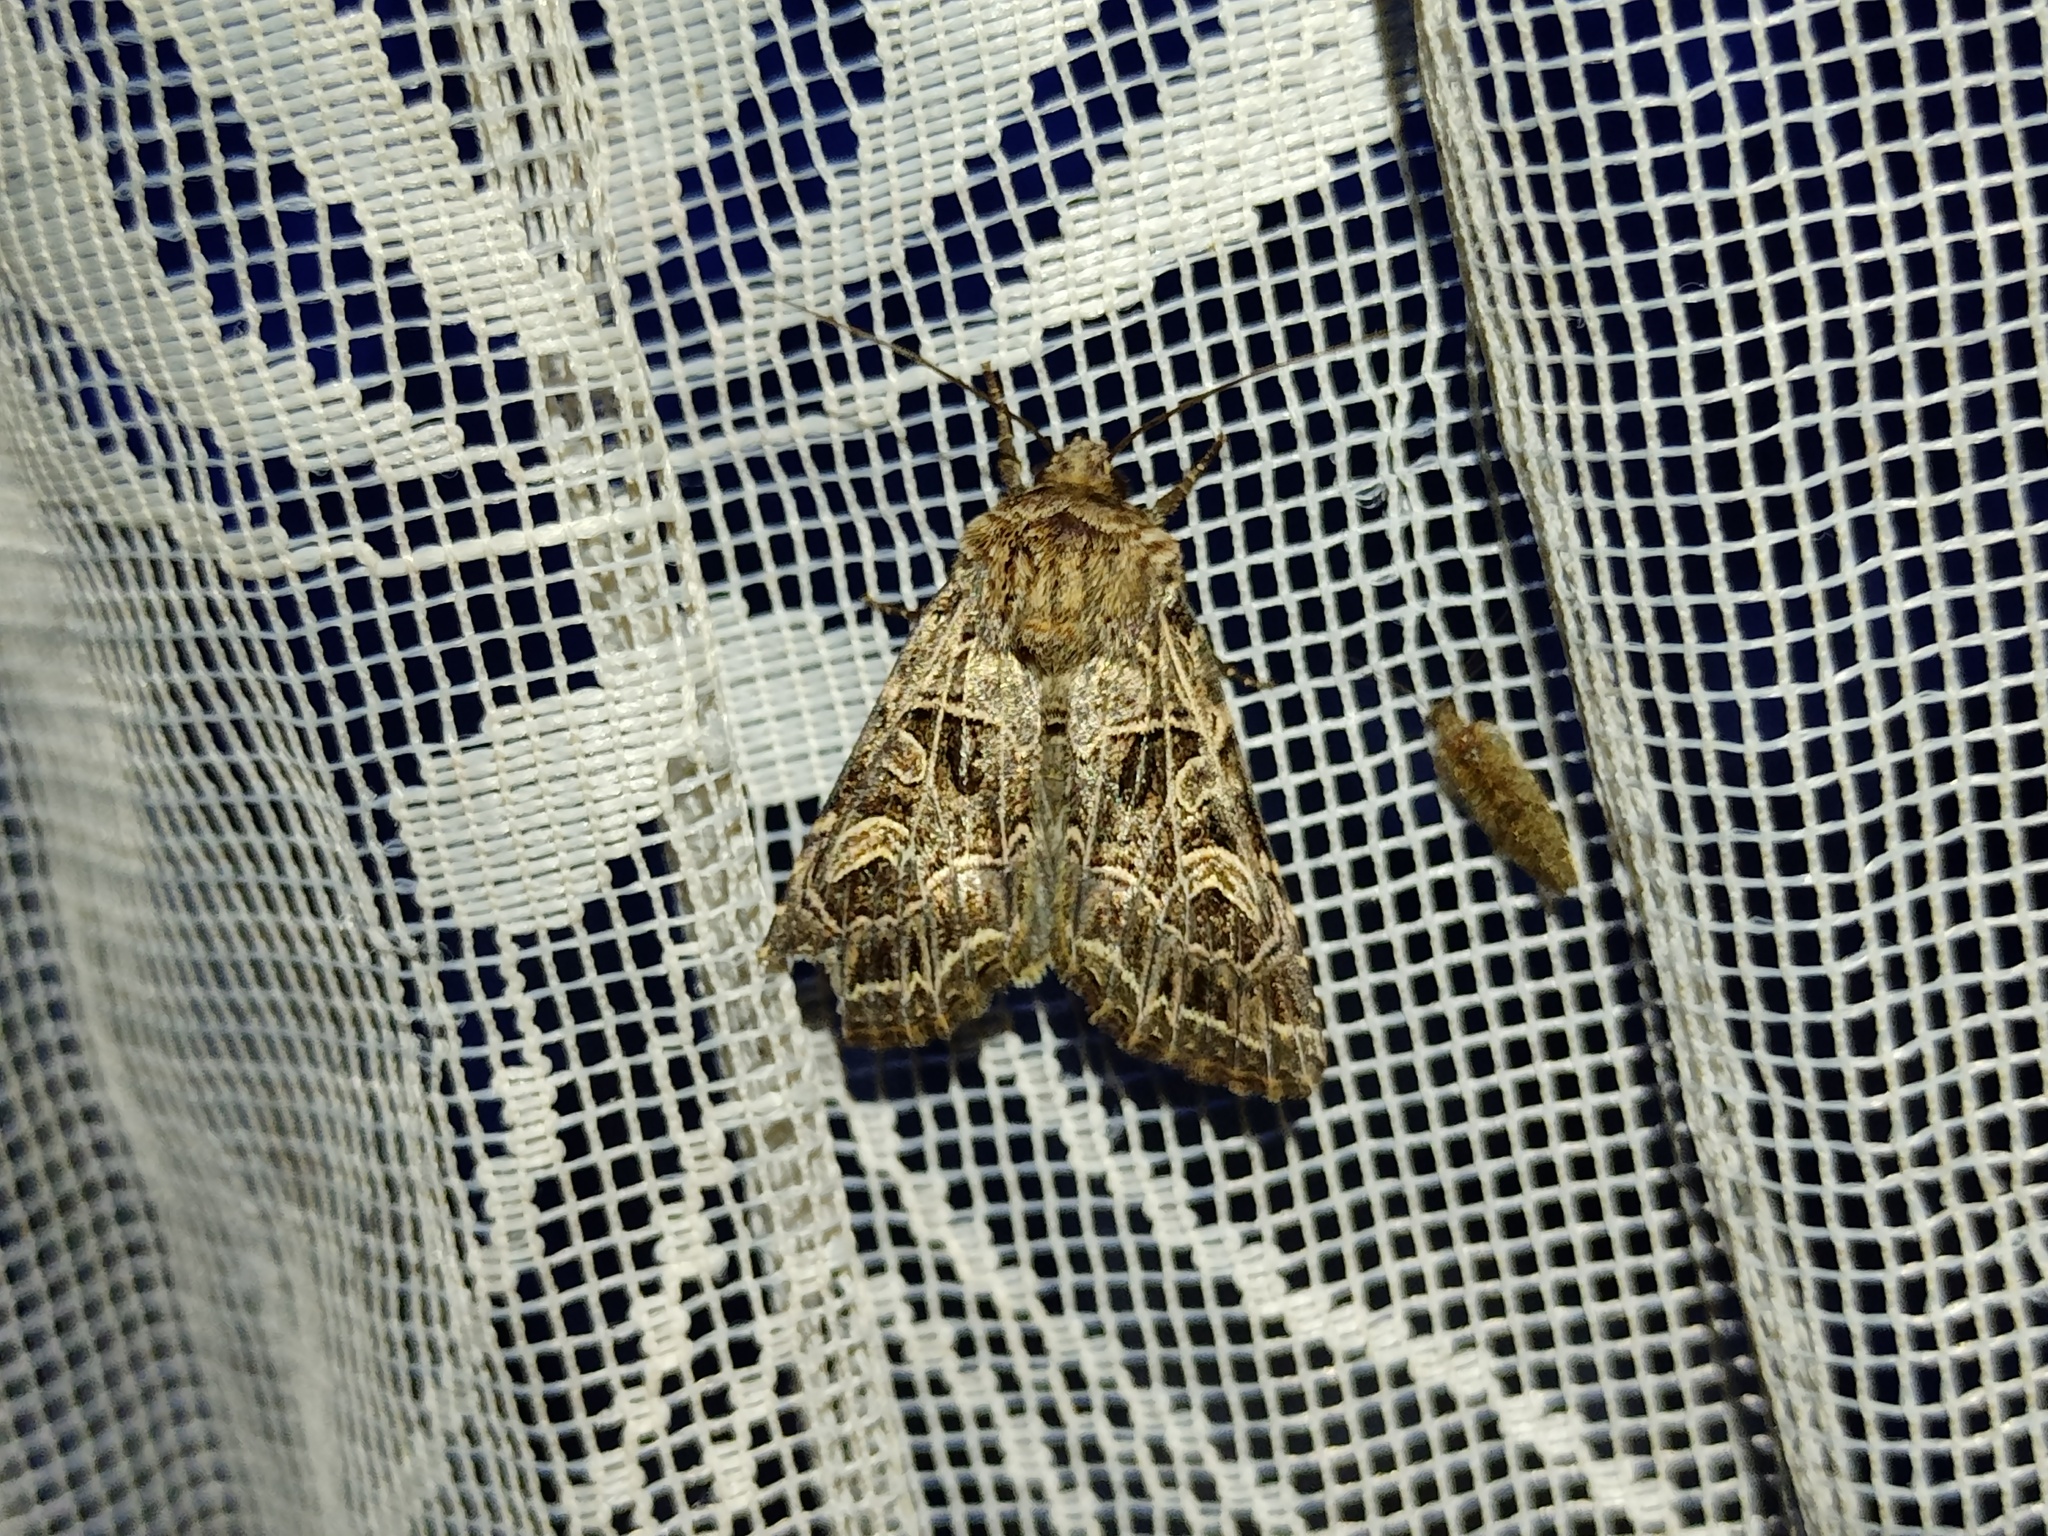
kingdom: Animalia
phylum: Arthropoda
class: Insecta
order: Lepidoptera
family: Noctuidae
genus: Sideridis
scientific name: Sideridis reticulata
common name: Bordered gothic
